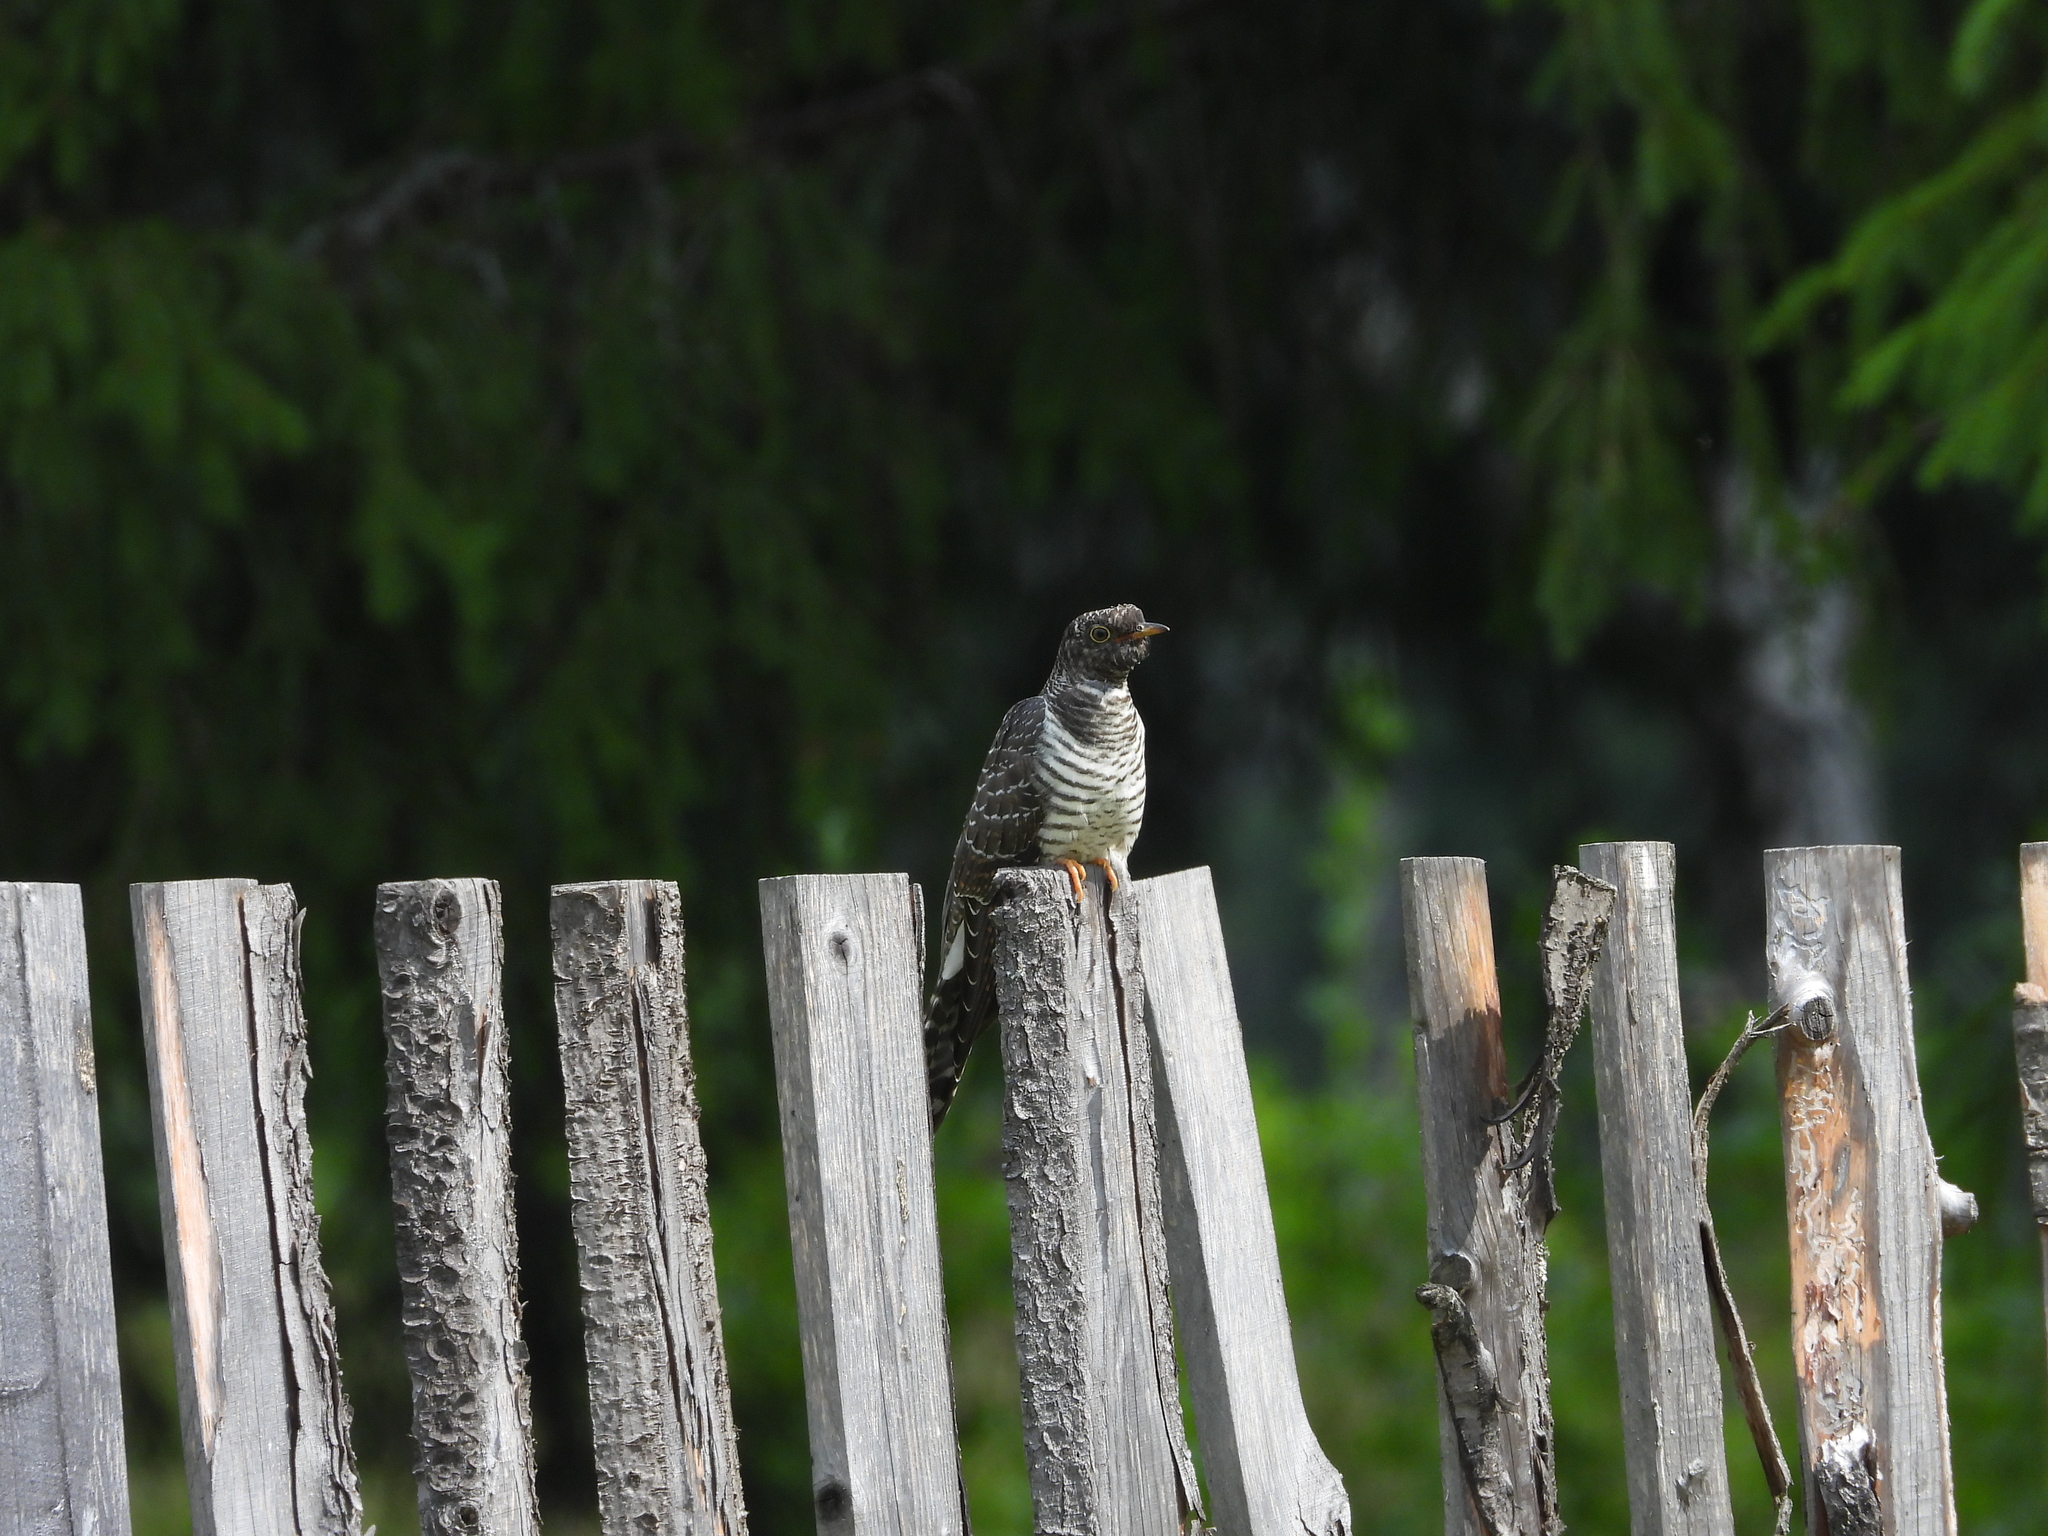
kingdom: Animalia
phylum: Chordata
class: Aves
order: Cuculiformes
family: Cuculidae
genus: Cuculus
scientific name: Cuculus canorus
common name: Common cuckoo
